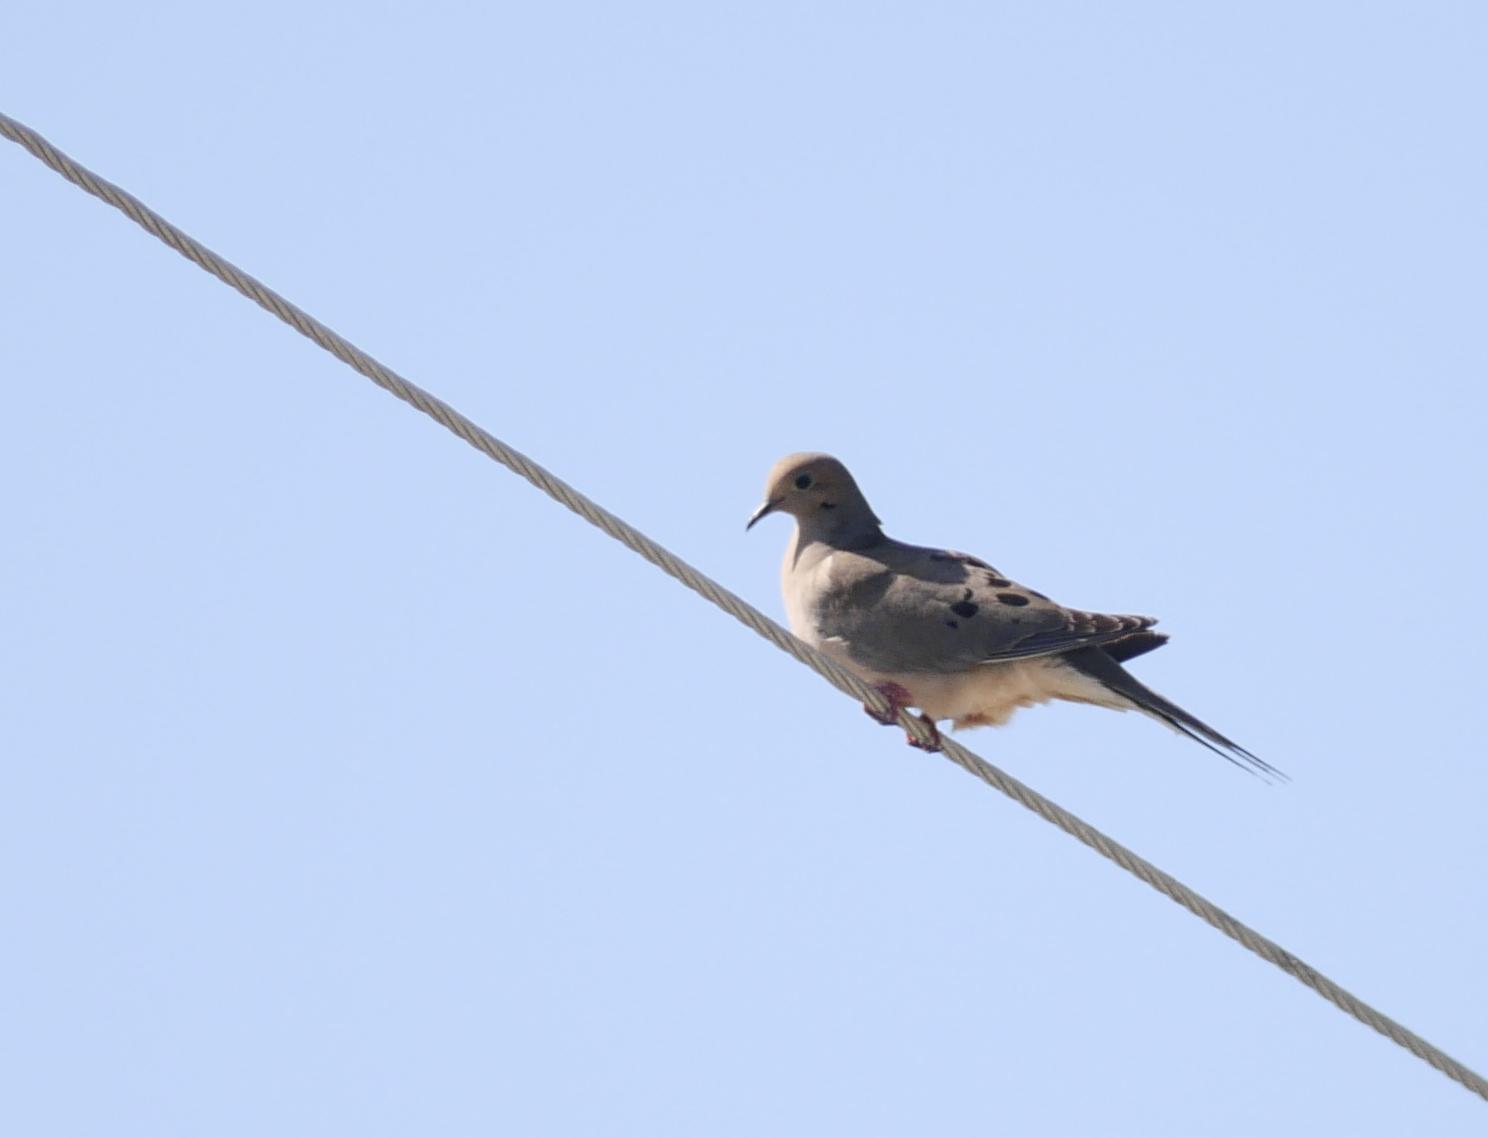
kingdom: Animalia
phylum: Chordata
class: Aves
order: Columbiformes
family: Columbidae
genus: Zenaida
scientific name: Zenaida macroura
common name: Mourning dove
